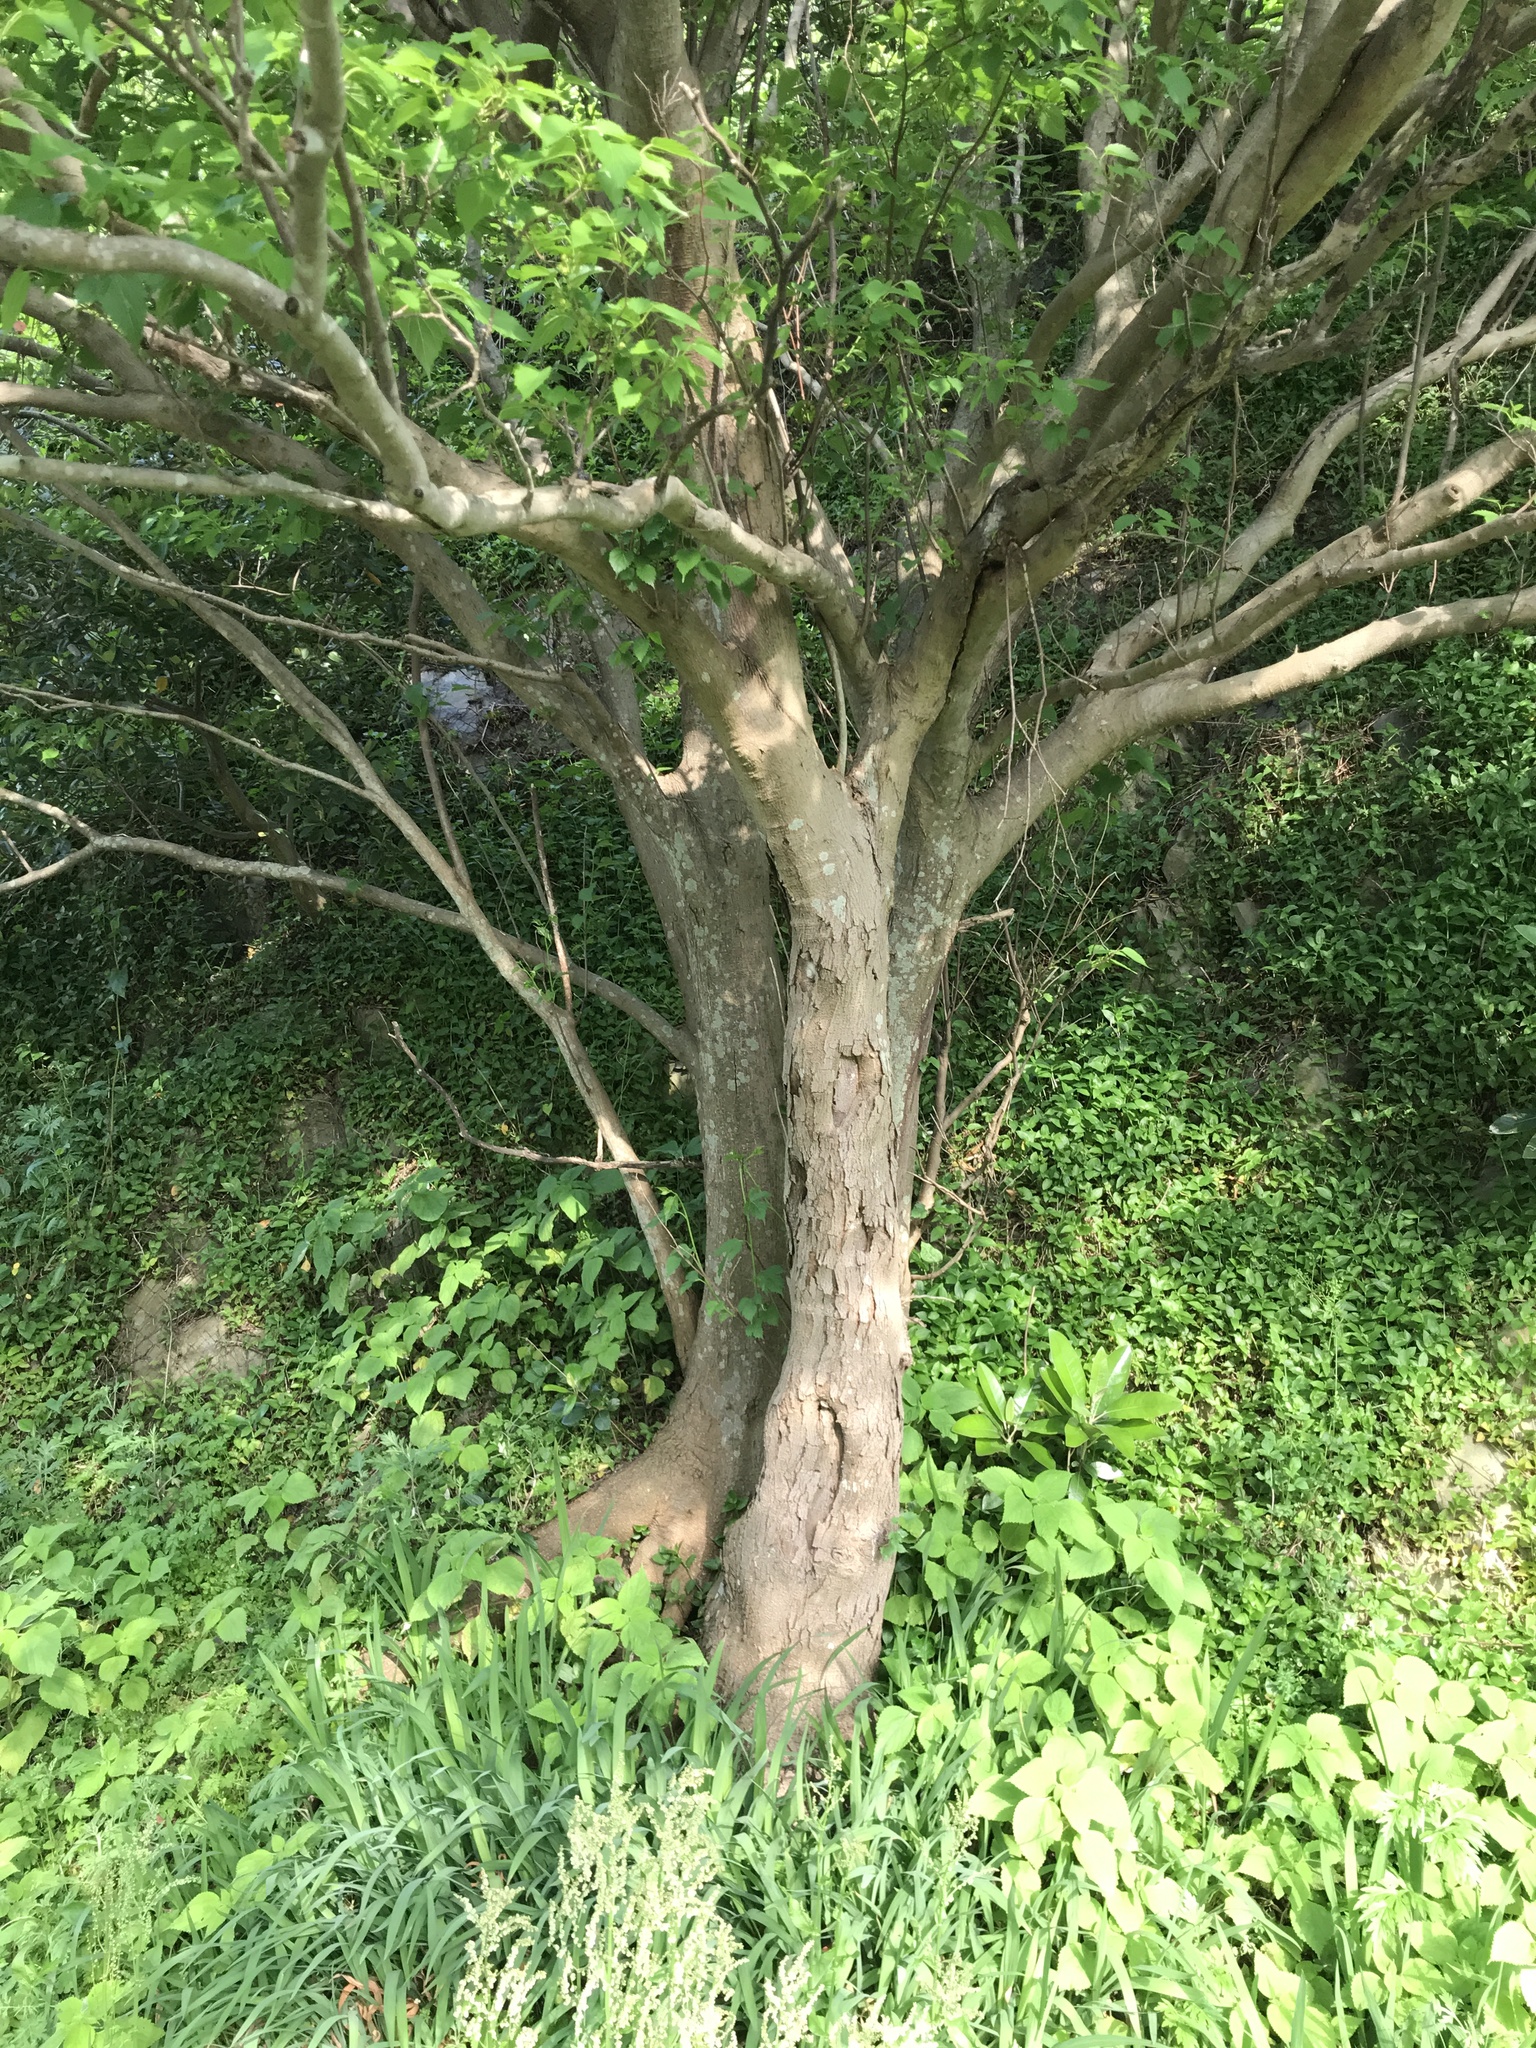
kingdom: Plantae
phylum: Tracheophyta
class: Magnoliopsida
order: Rosales
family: Moraceae
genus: Morus
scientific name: Morus indica
